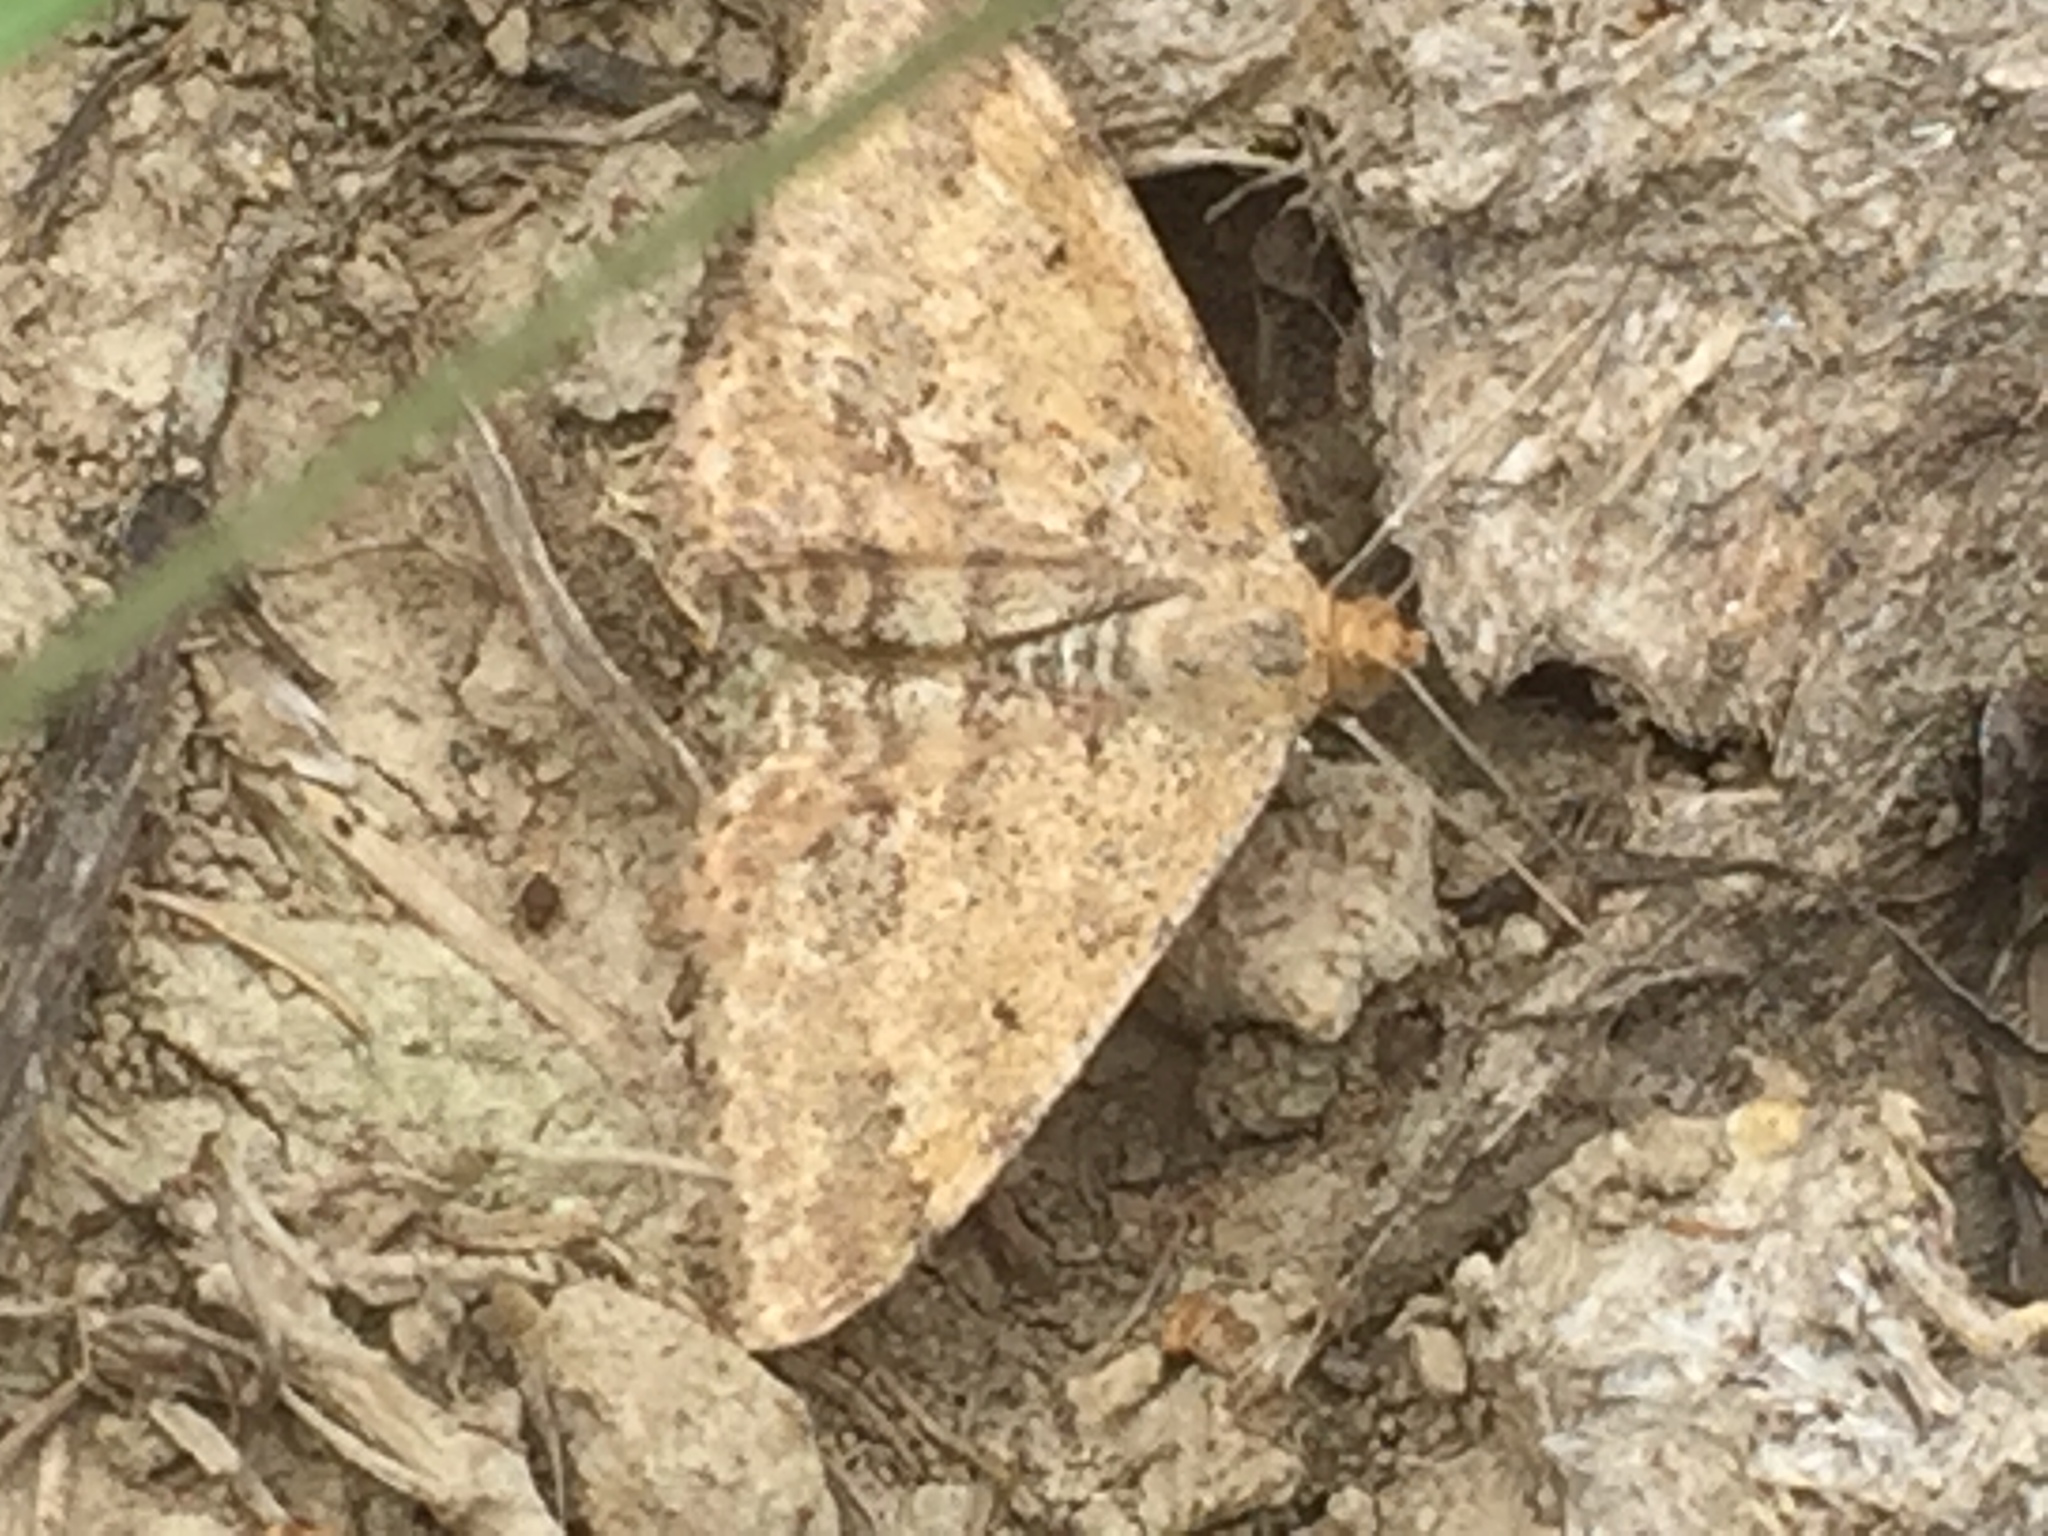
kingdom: Animalia
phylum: Arthropoda
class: Insecta
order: Lepidoptera
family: Geometridae
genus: Scopula
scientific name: Scopula rubraria
